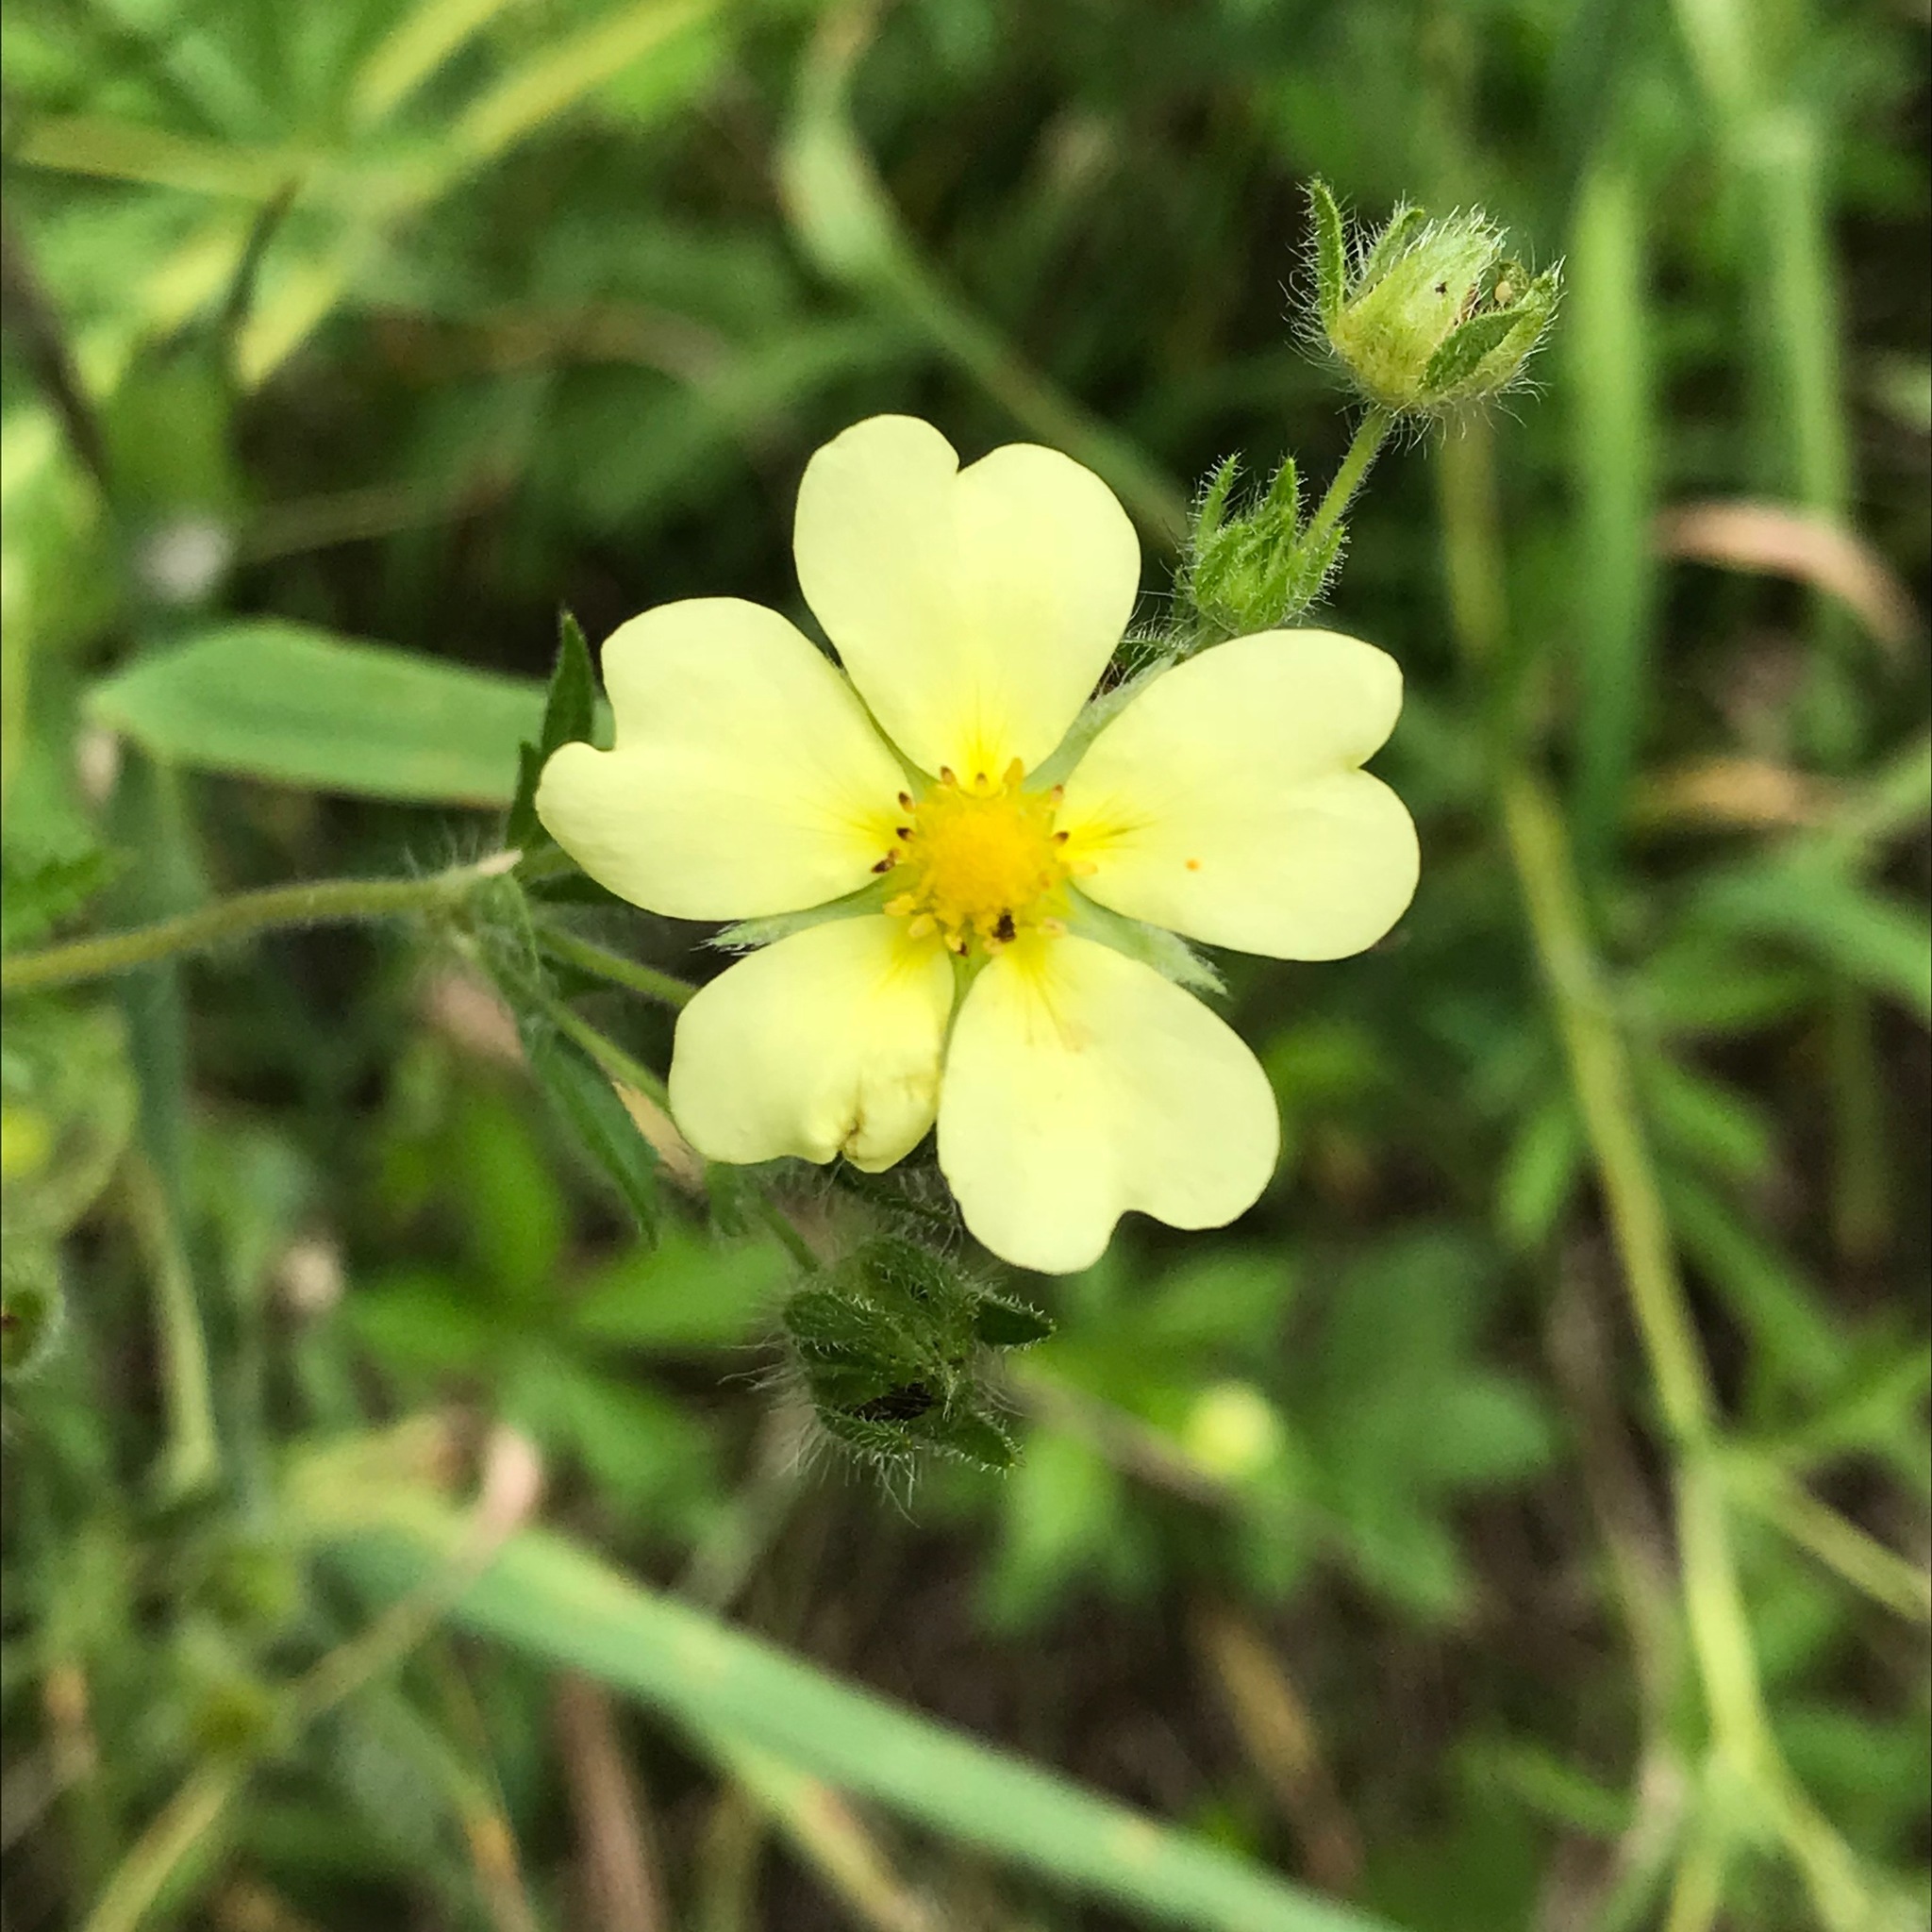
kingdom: Plantae
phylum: Tracheophyta
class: Magnoliopsida
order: Rosales
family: Rosaceae
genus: Potentilla
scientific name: Potentilla recta
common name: Sulphur cinquefoil
